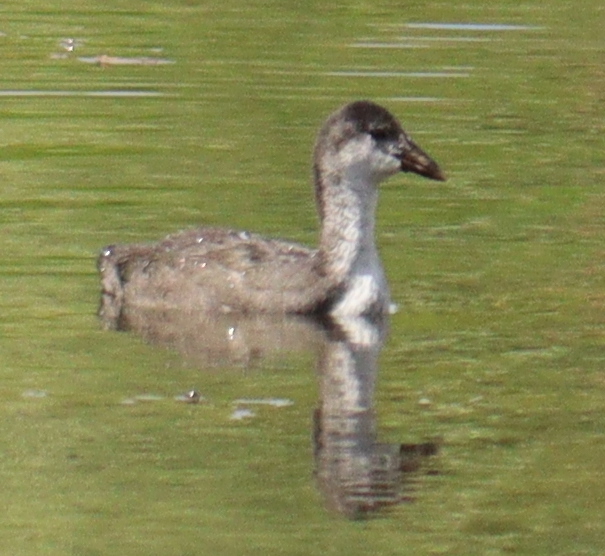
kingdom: Animalia
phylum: Chordata
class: Aves
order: Gruiformes
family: Rallidae
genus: Fulica
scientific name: Fulica atra
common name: Eurasian coot
